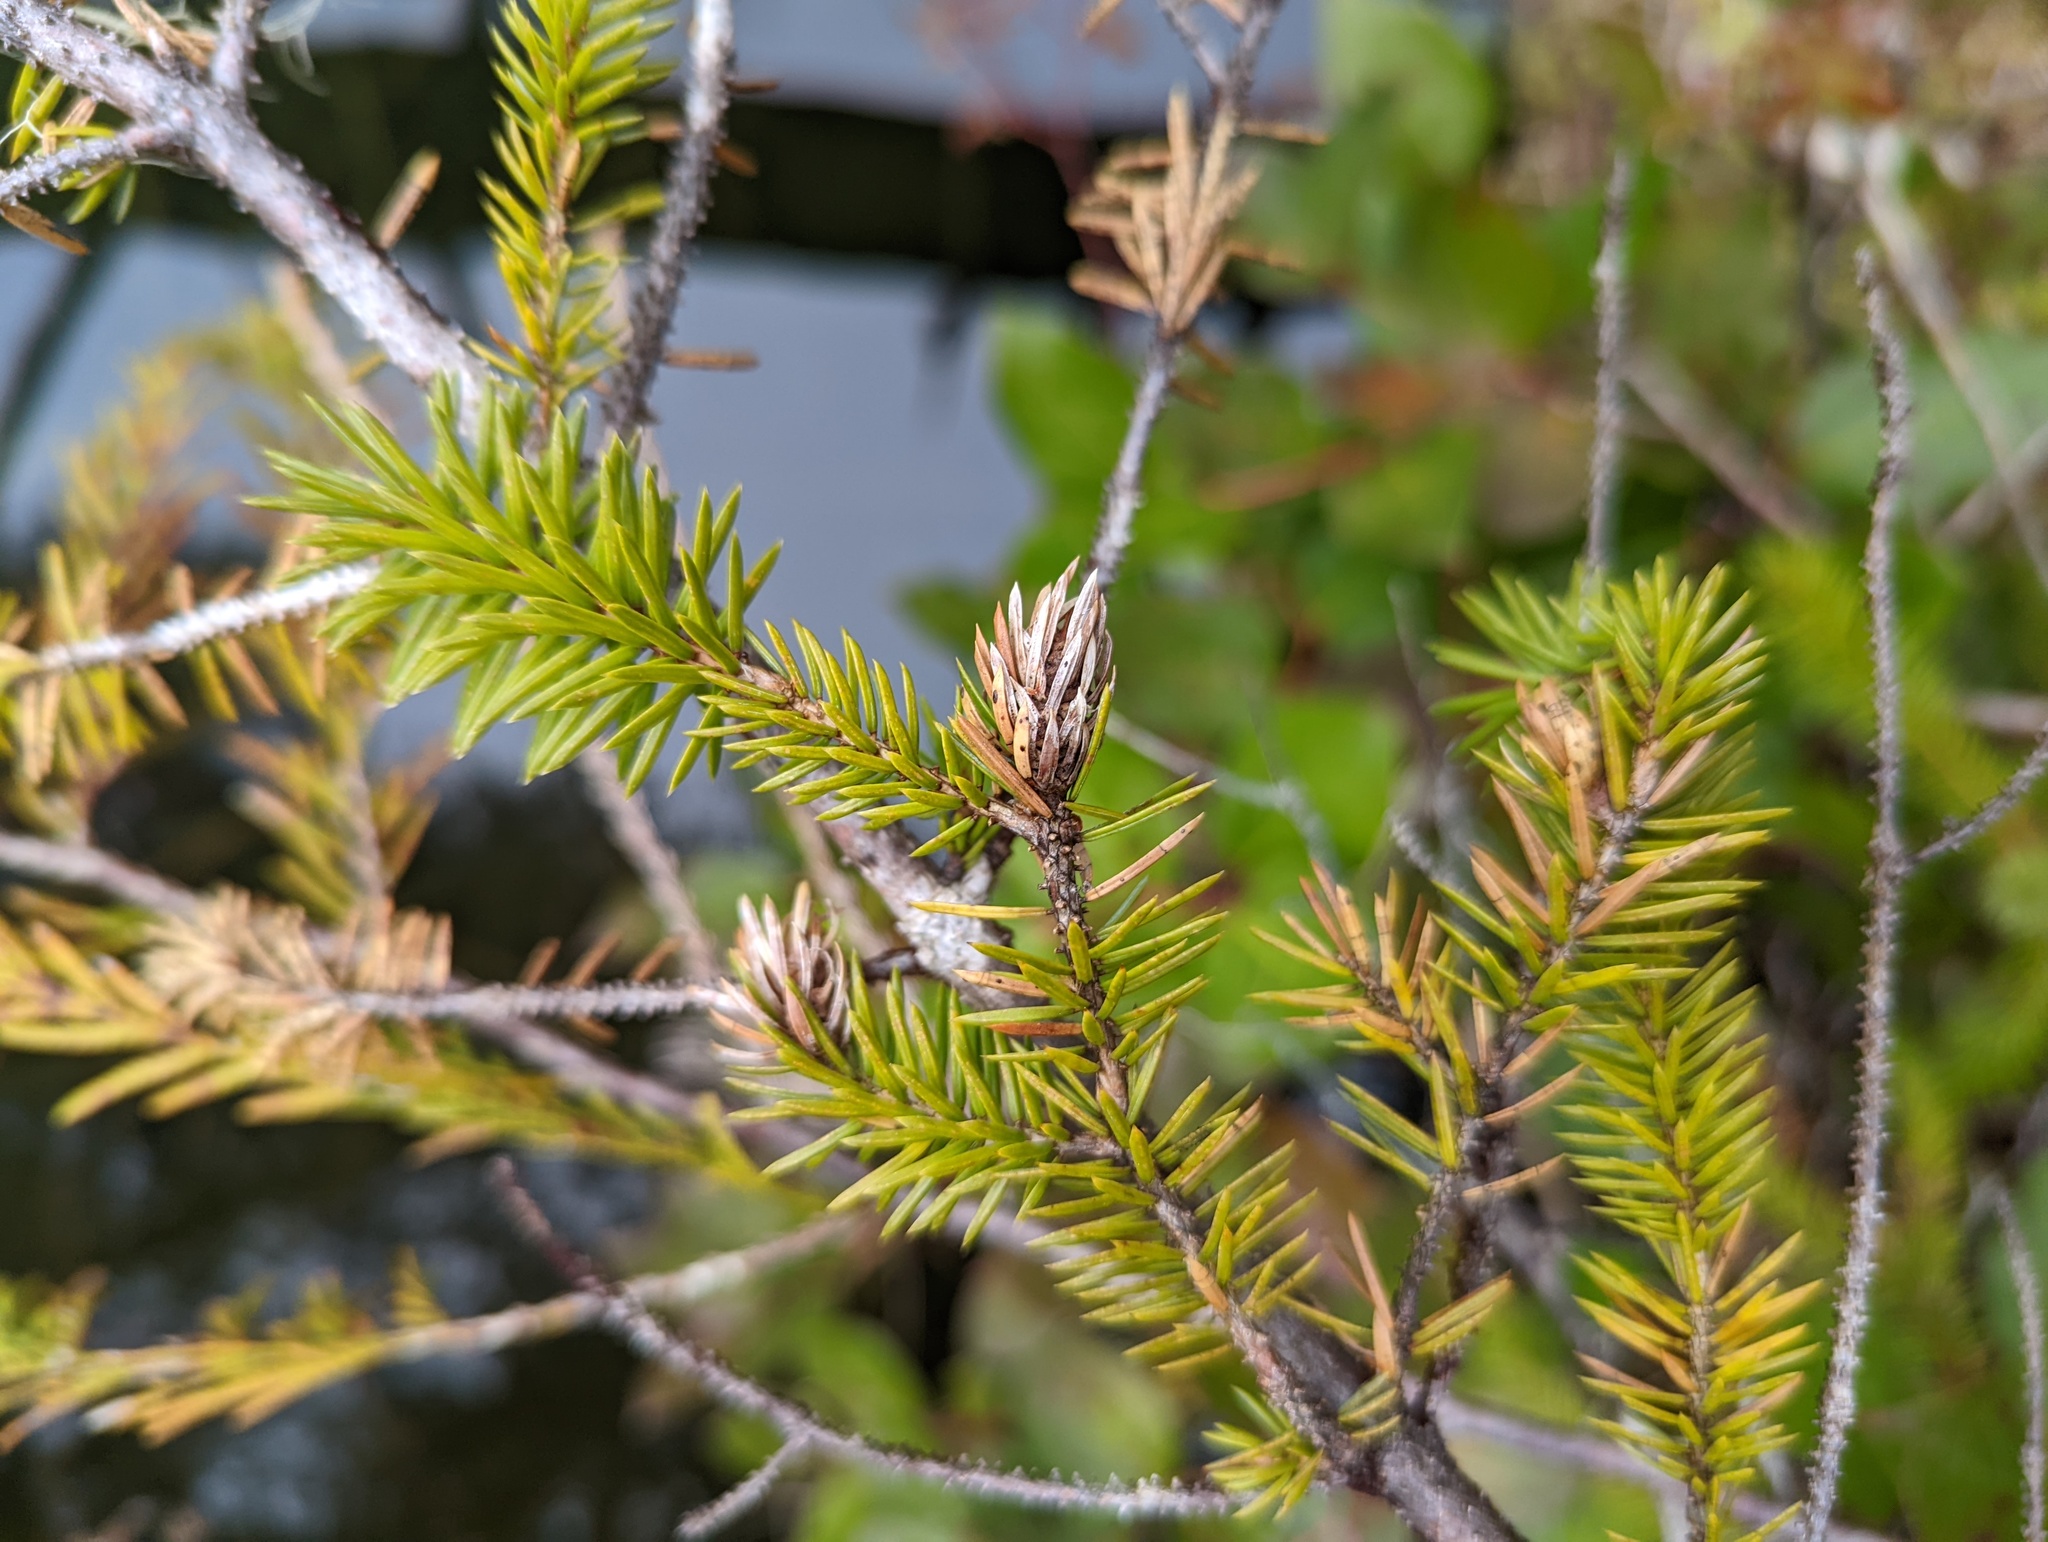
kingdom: Animalia
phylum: Arthropoda
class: Insecta
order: Hemiptera
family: Adelgidae
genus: Adelges
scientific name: Adelges cooleyi
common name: Cooley spruce gall adelgid
